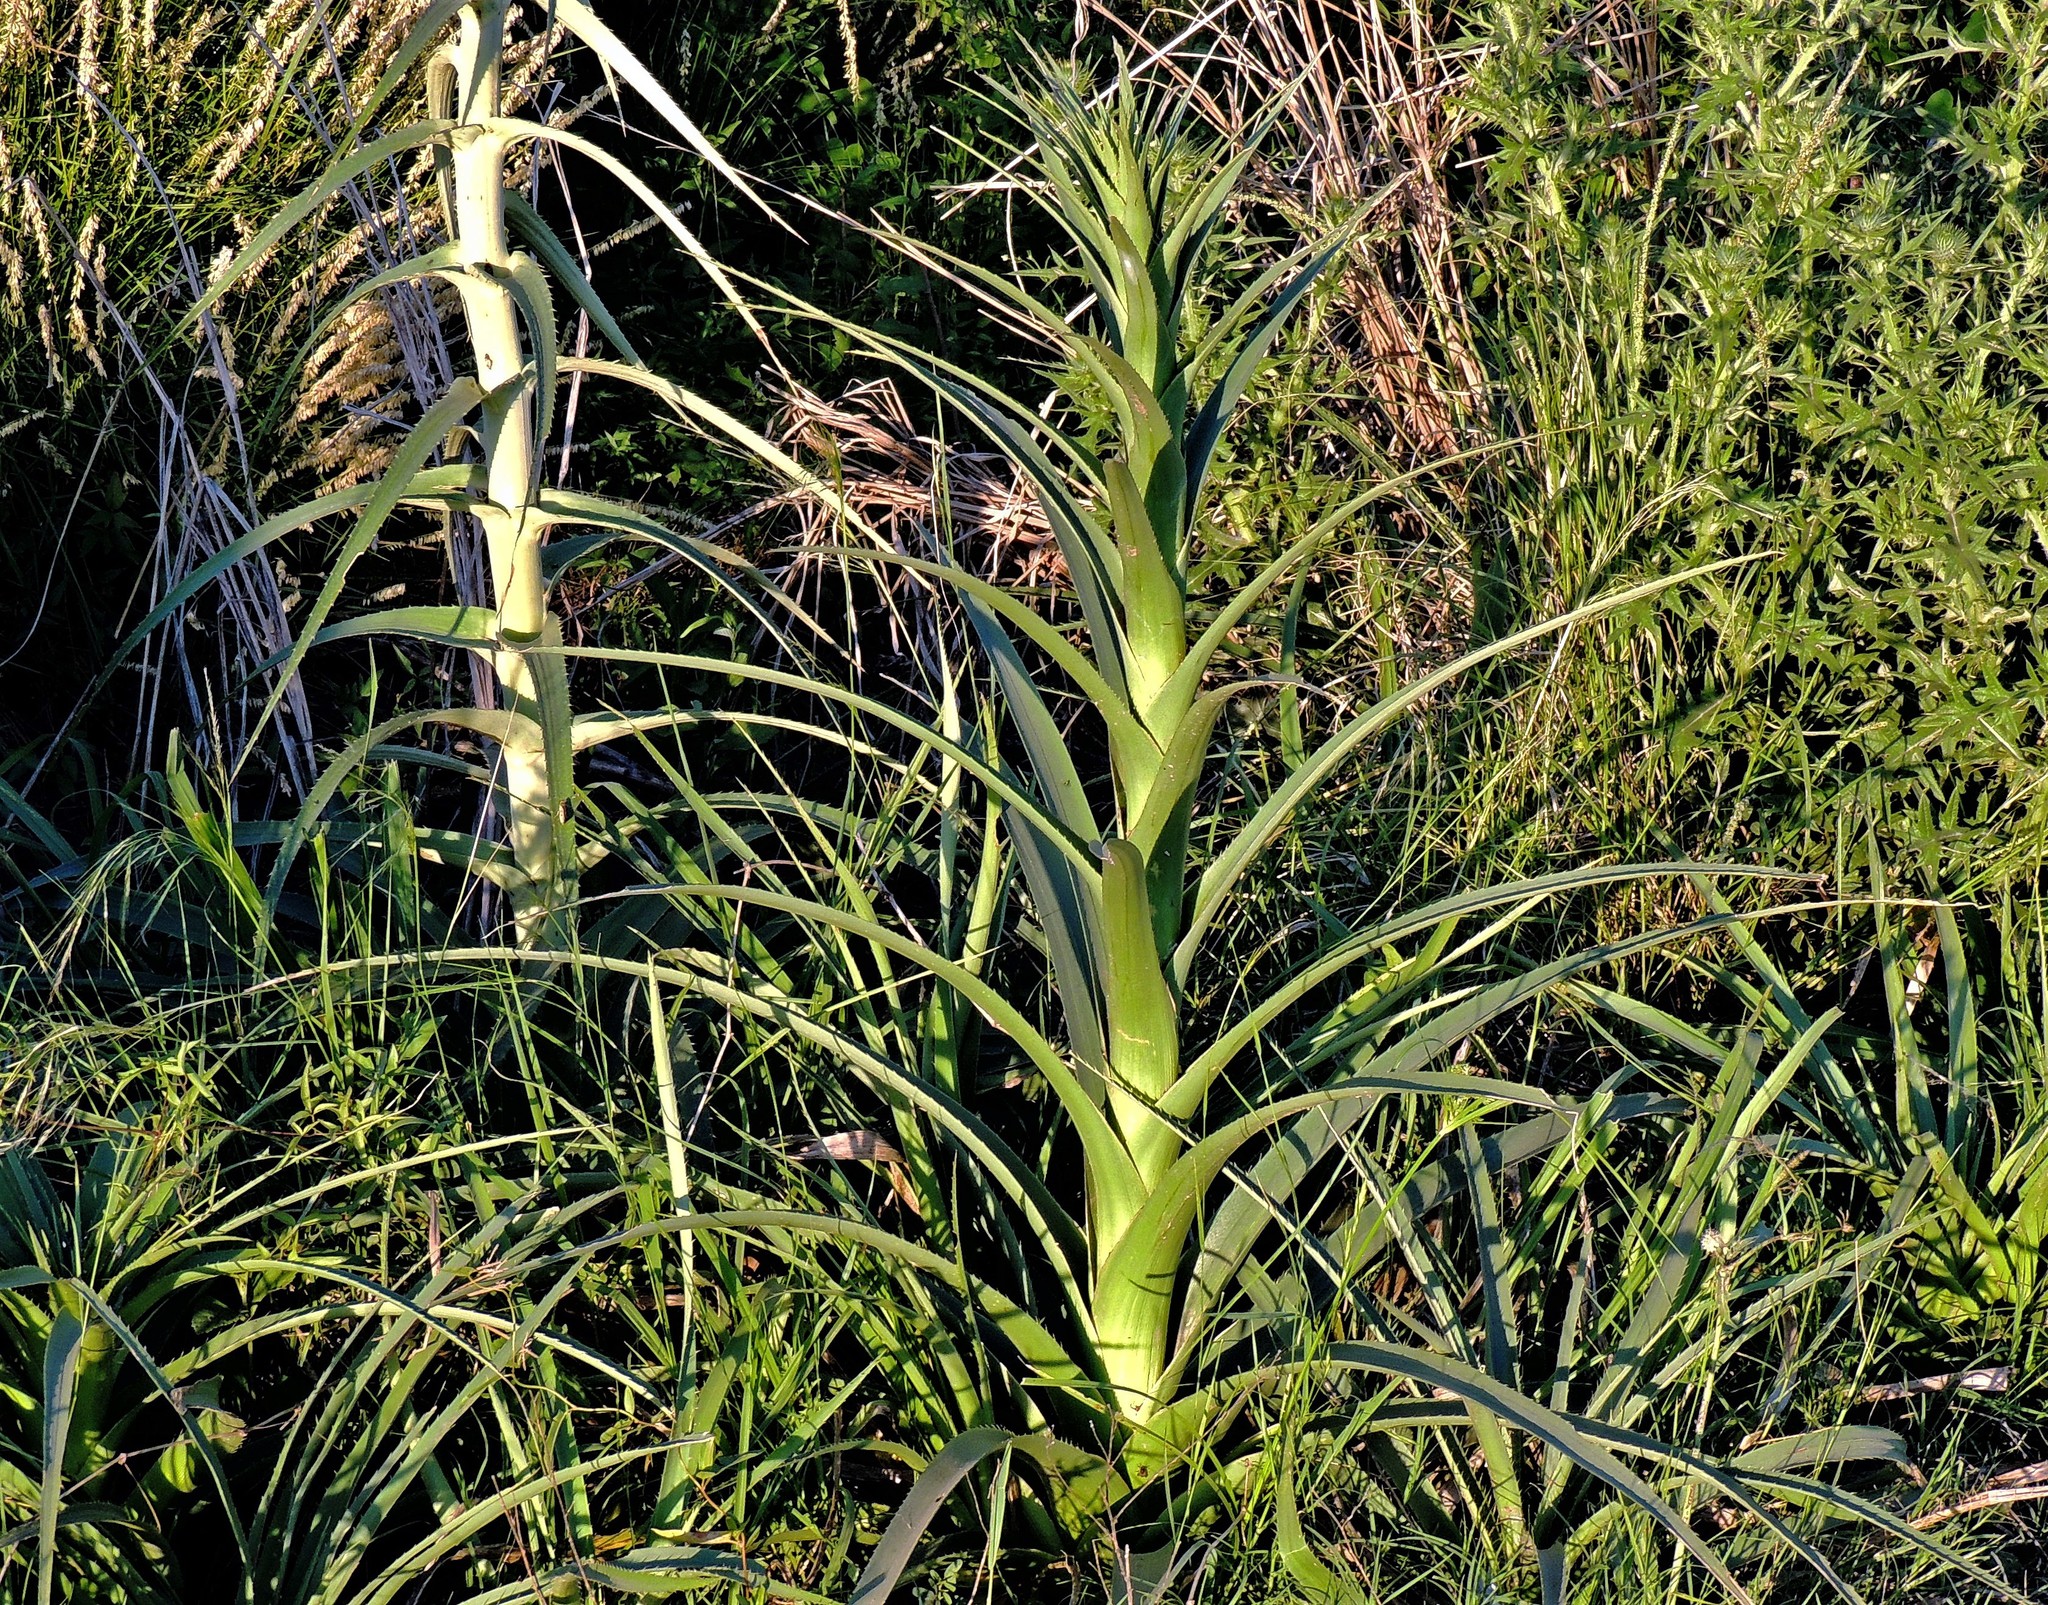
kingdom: Plantae
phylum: Tracheophyta
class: Magnoliopsida
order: Apiales
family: Apiaceae
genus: Eryngium
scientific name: Eryngium horridum
